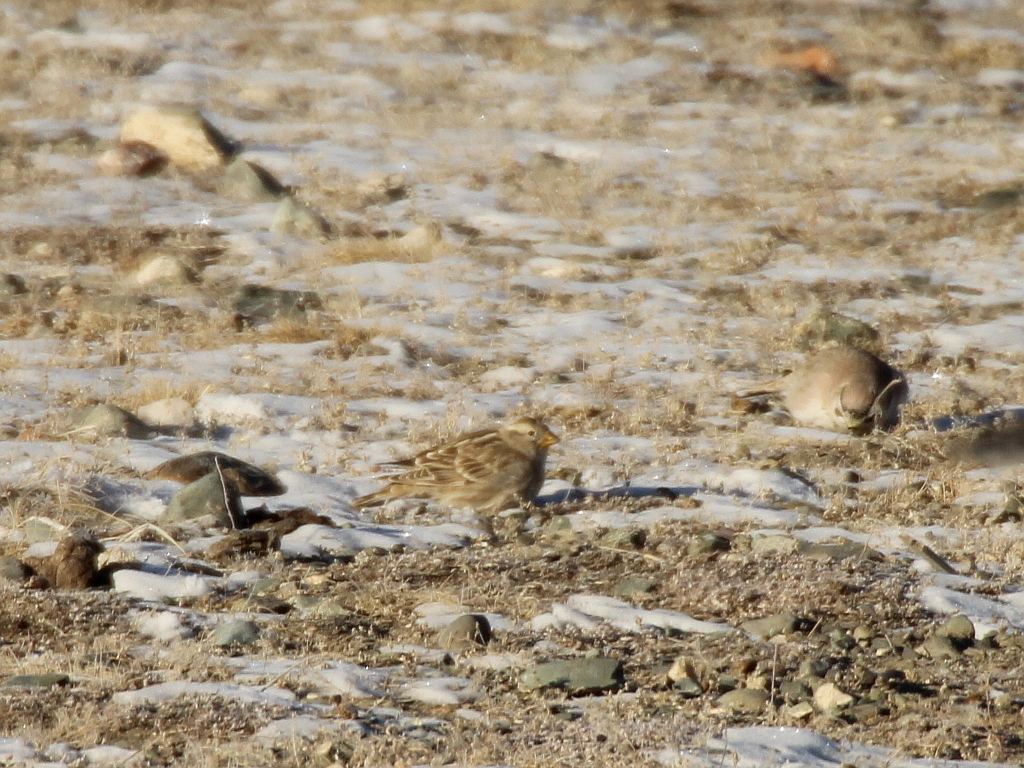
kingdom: Animalia
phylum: Chordata
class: Aves
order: Passeriformes
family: Passeridae
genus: Petronia
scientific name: Petronia petronia
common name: Rock sparrow
